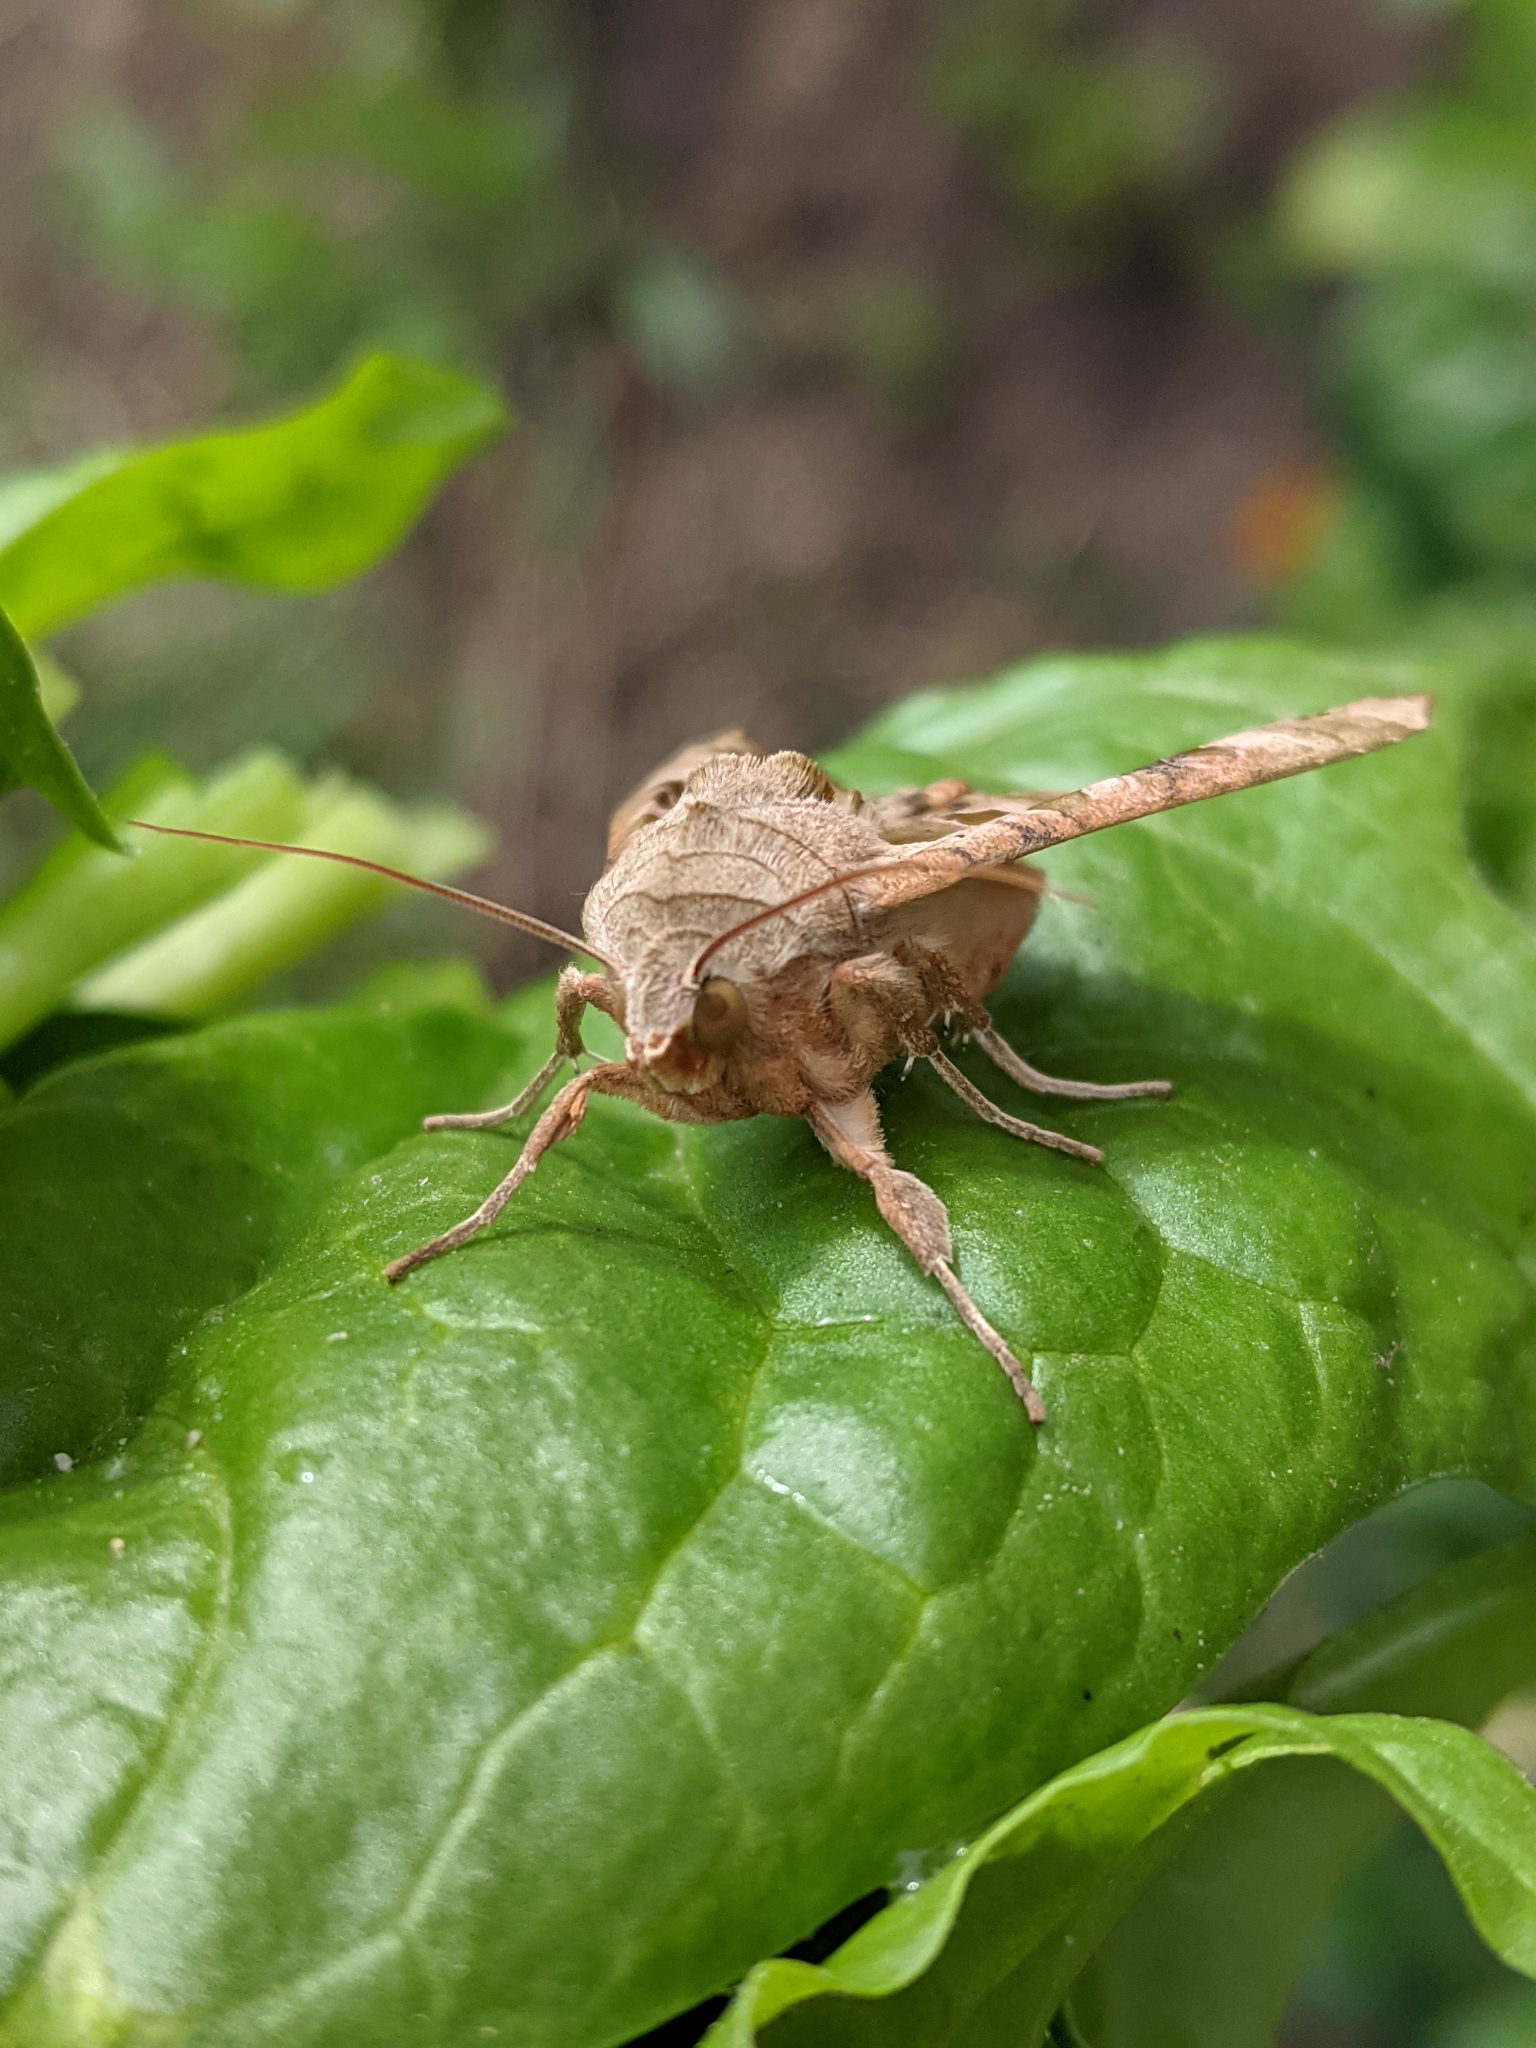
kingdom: Animalia
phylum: Arthropoda
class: Insecta
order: Lepidoptera
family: Noctuidae
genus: Phlogophora
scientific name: Phlogophora meticulosa
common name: Angle shades
